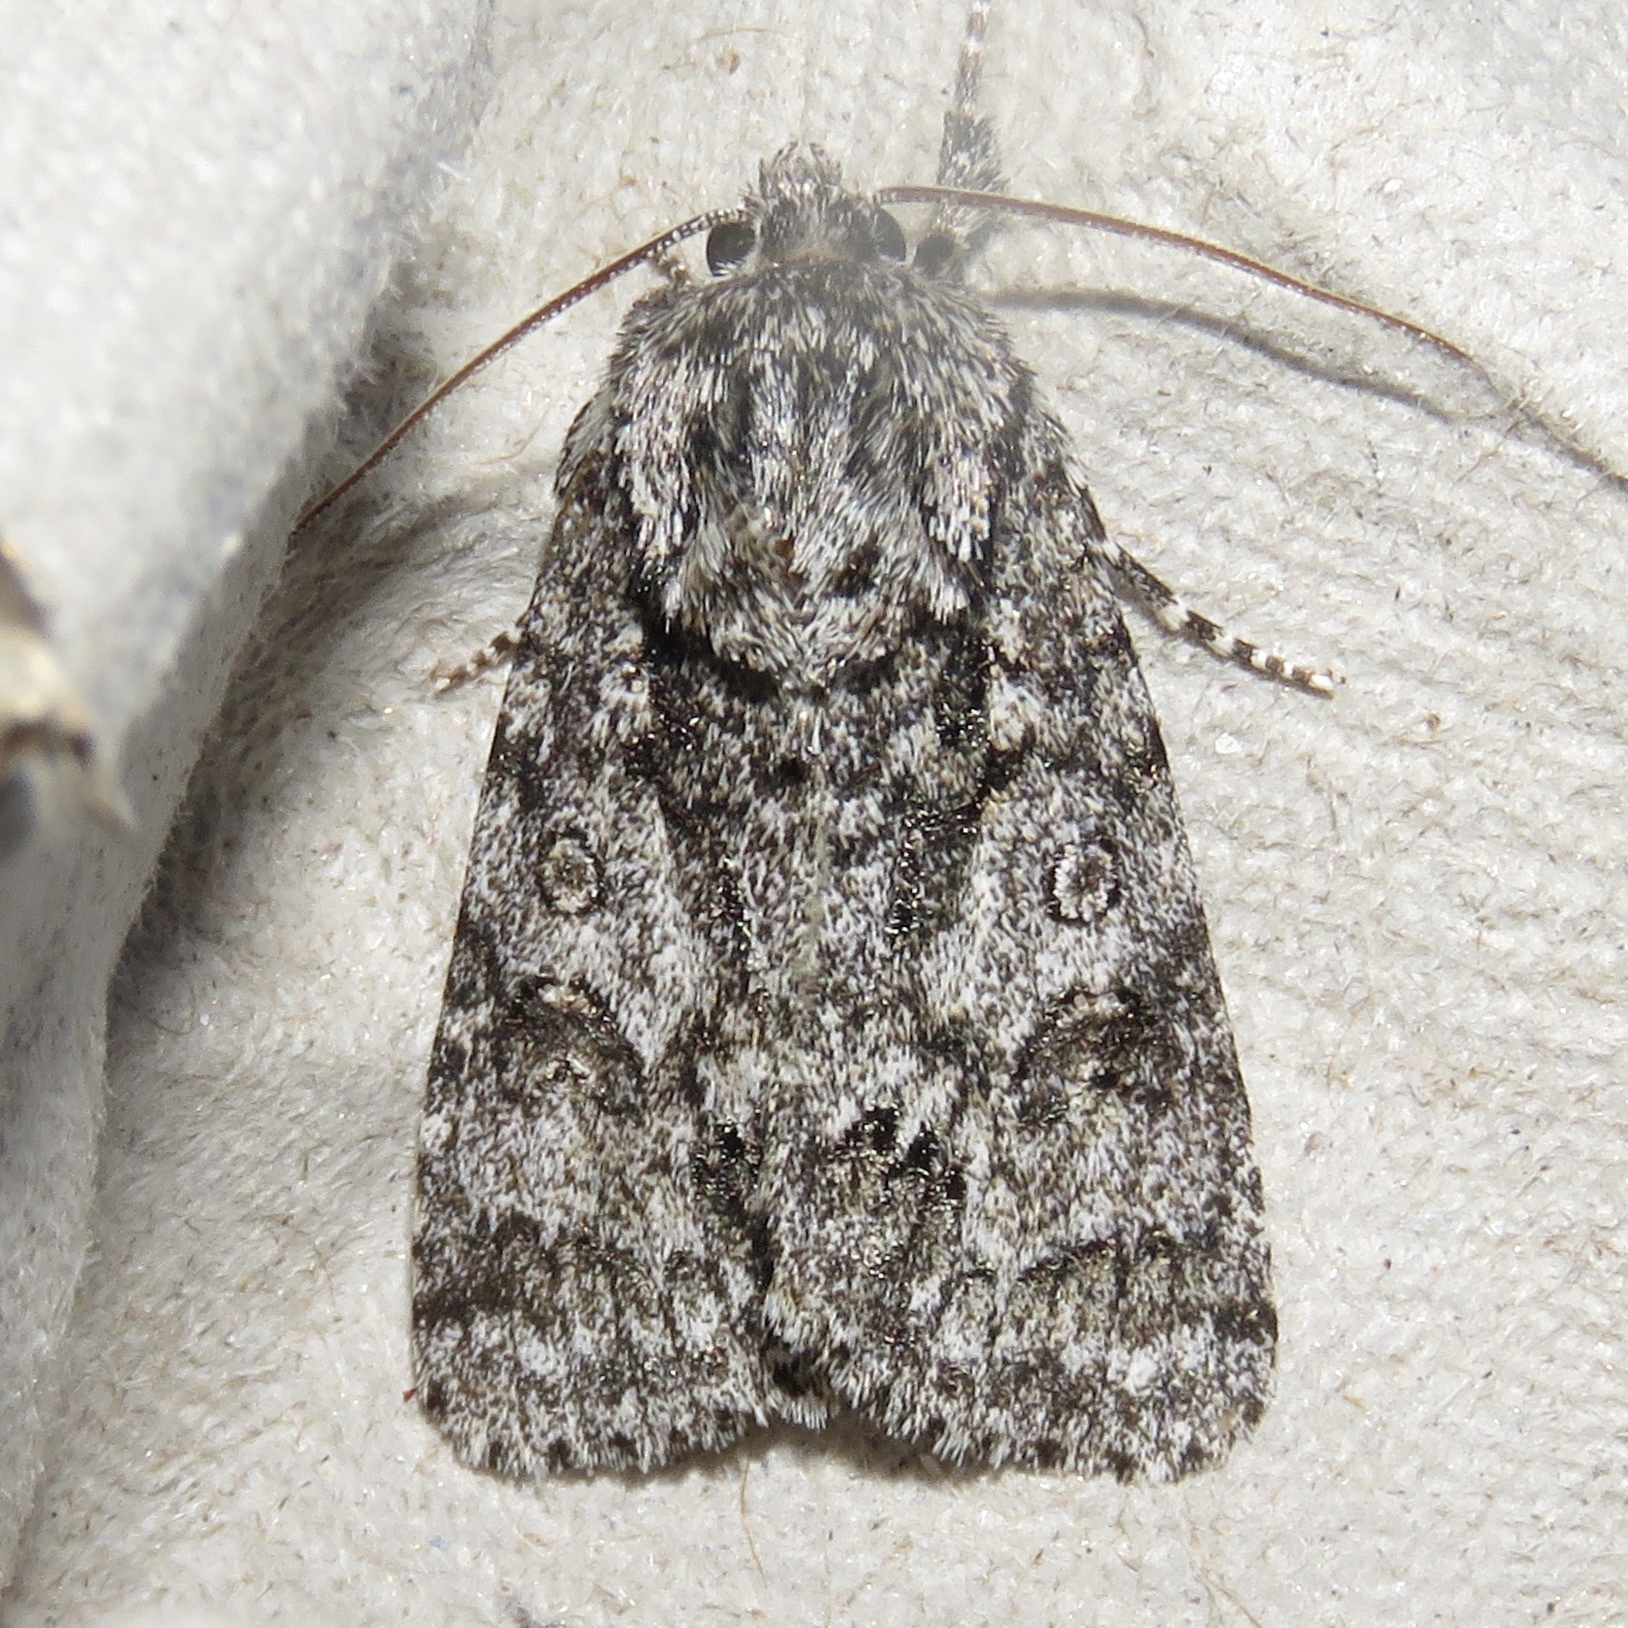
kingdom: Animalia
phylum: Arthropoda
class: Insecta
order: Lepidoptera
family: Noctuidae
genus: Acronicta
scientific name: Acronicta impressa
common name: Impressed dagger
